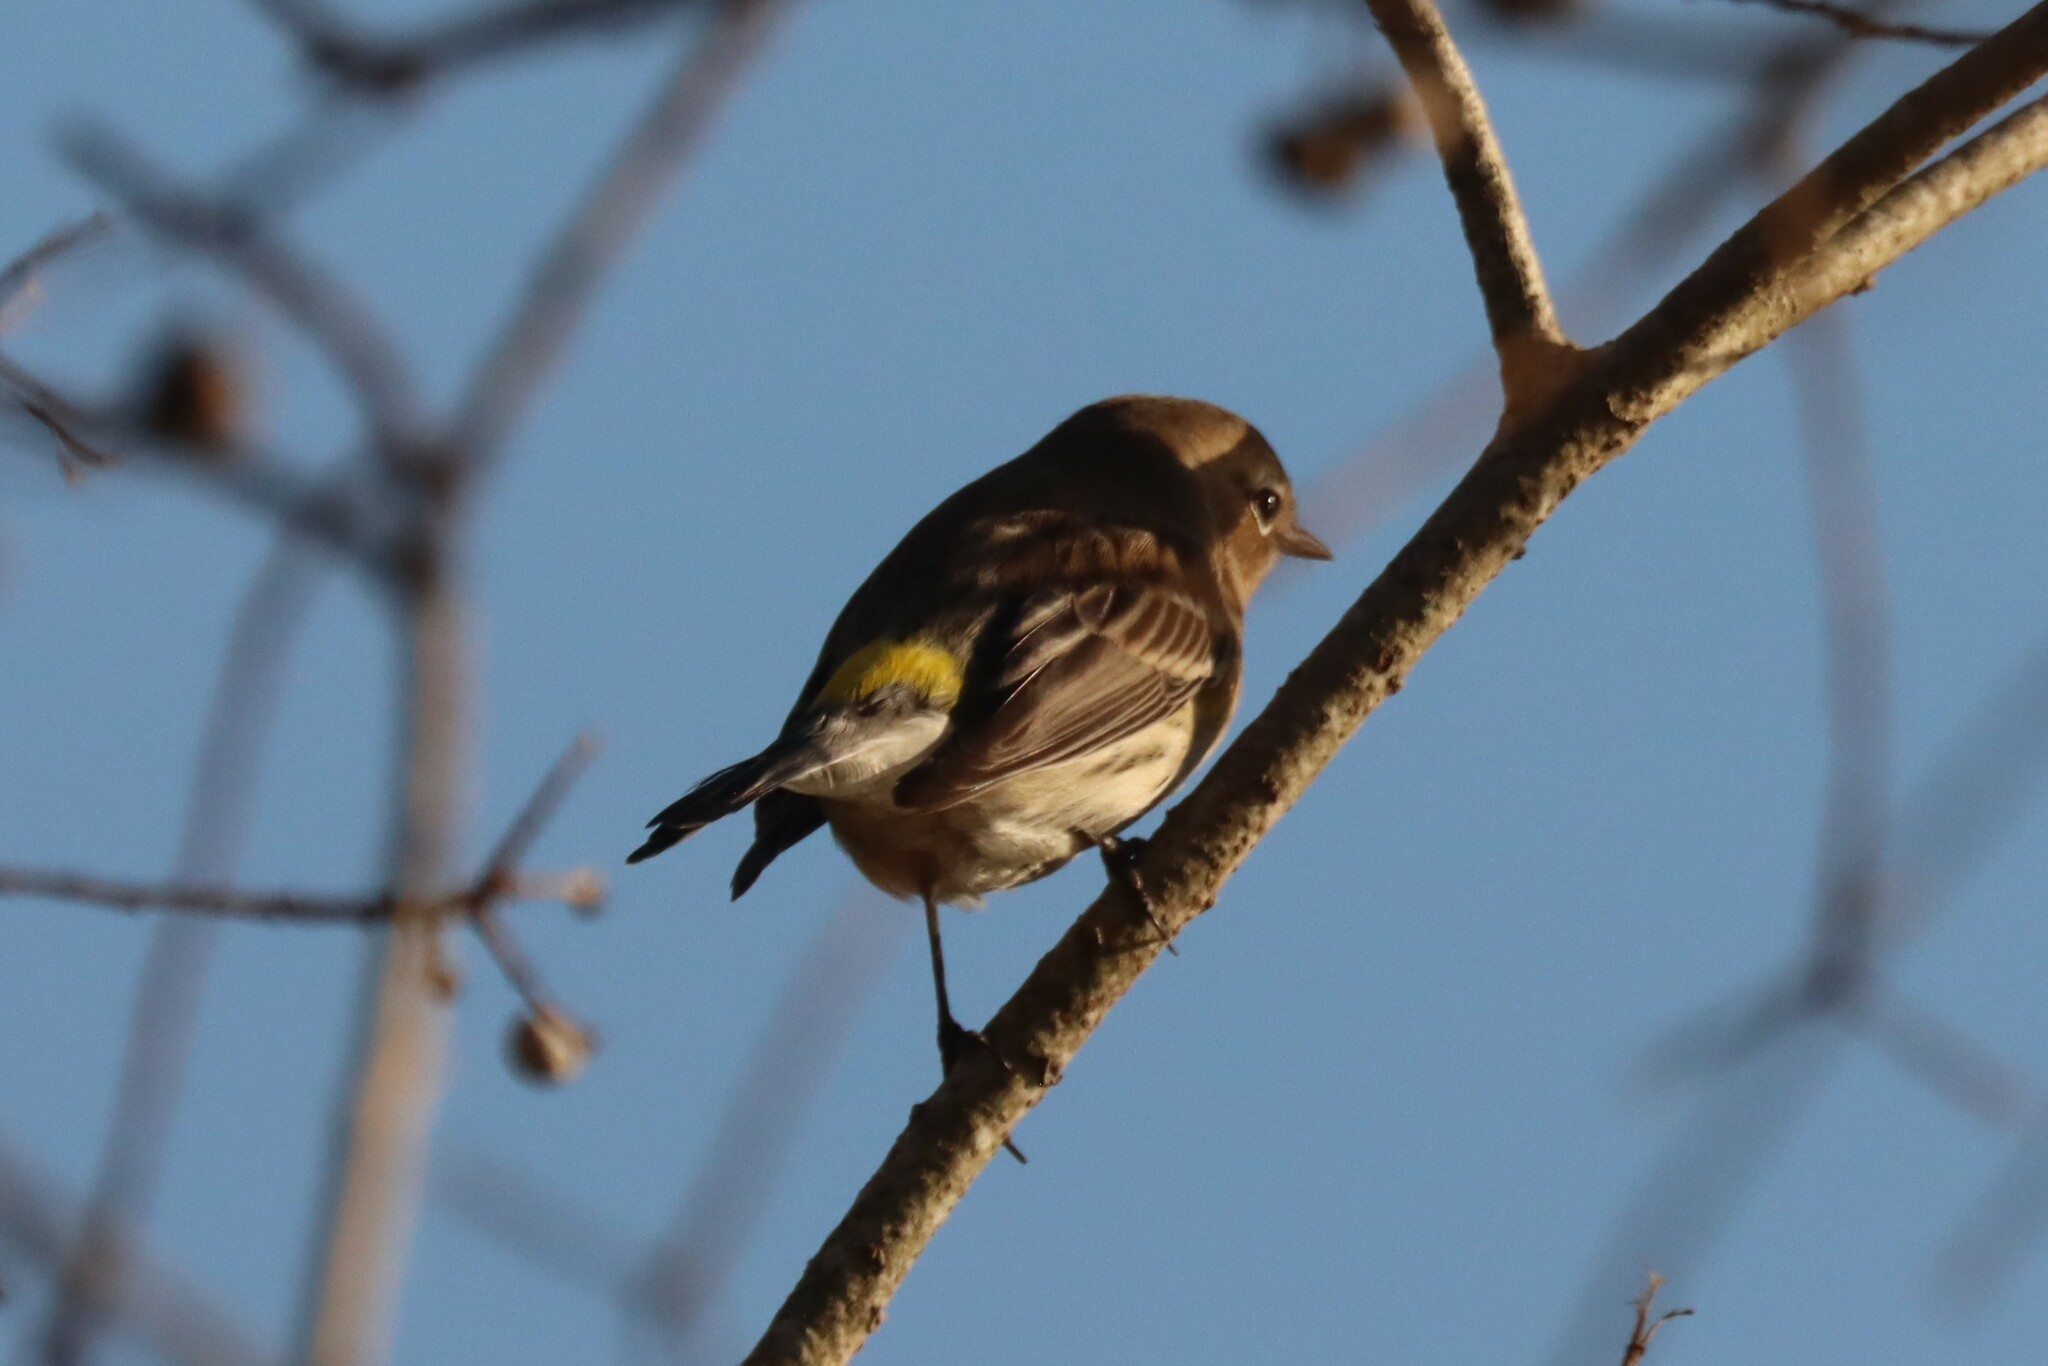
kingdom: Animalia
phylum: Chordata
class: Aves
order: Passeriformes
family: Parulidae
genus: Setophaga
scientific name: Setophaga coronata
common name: Myrtle warbler
